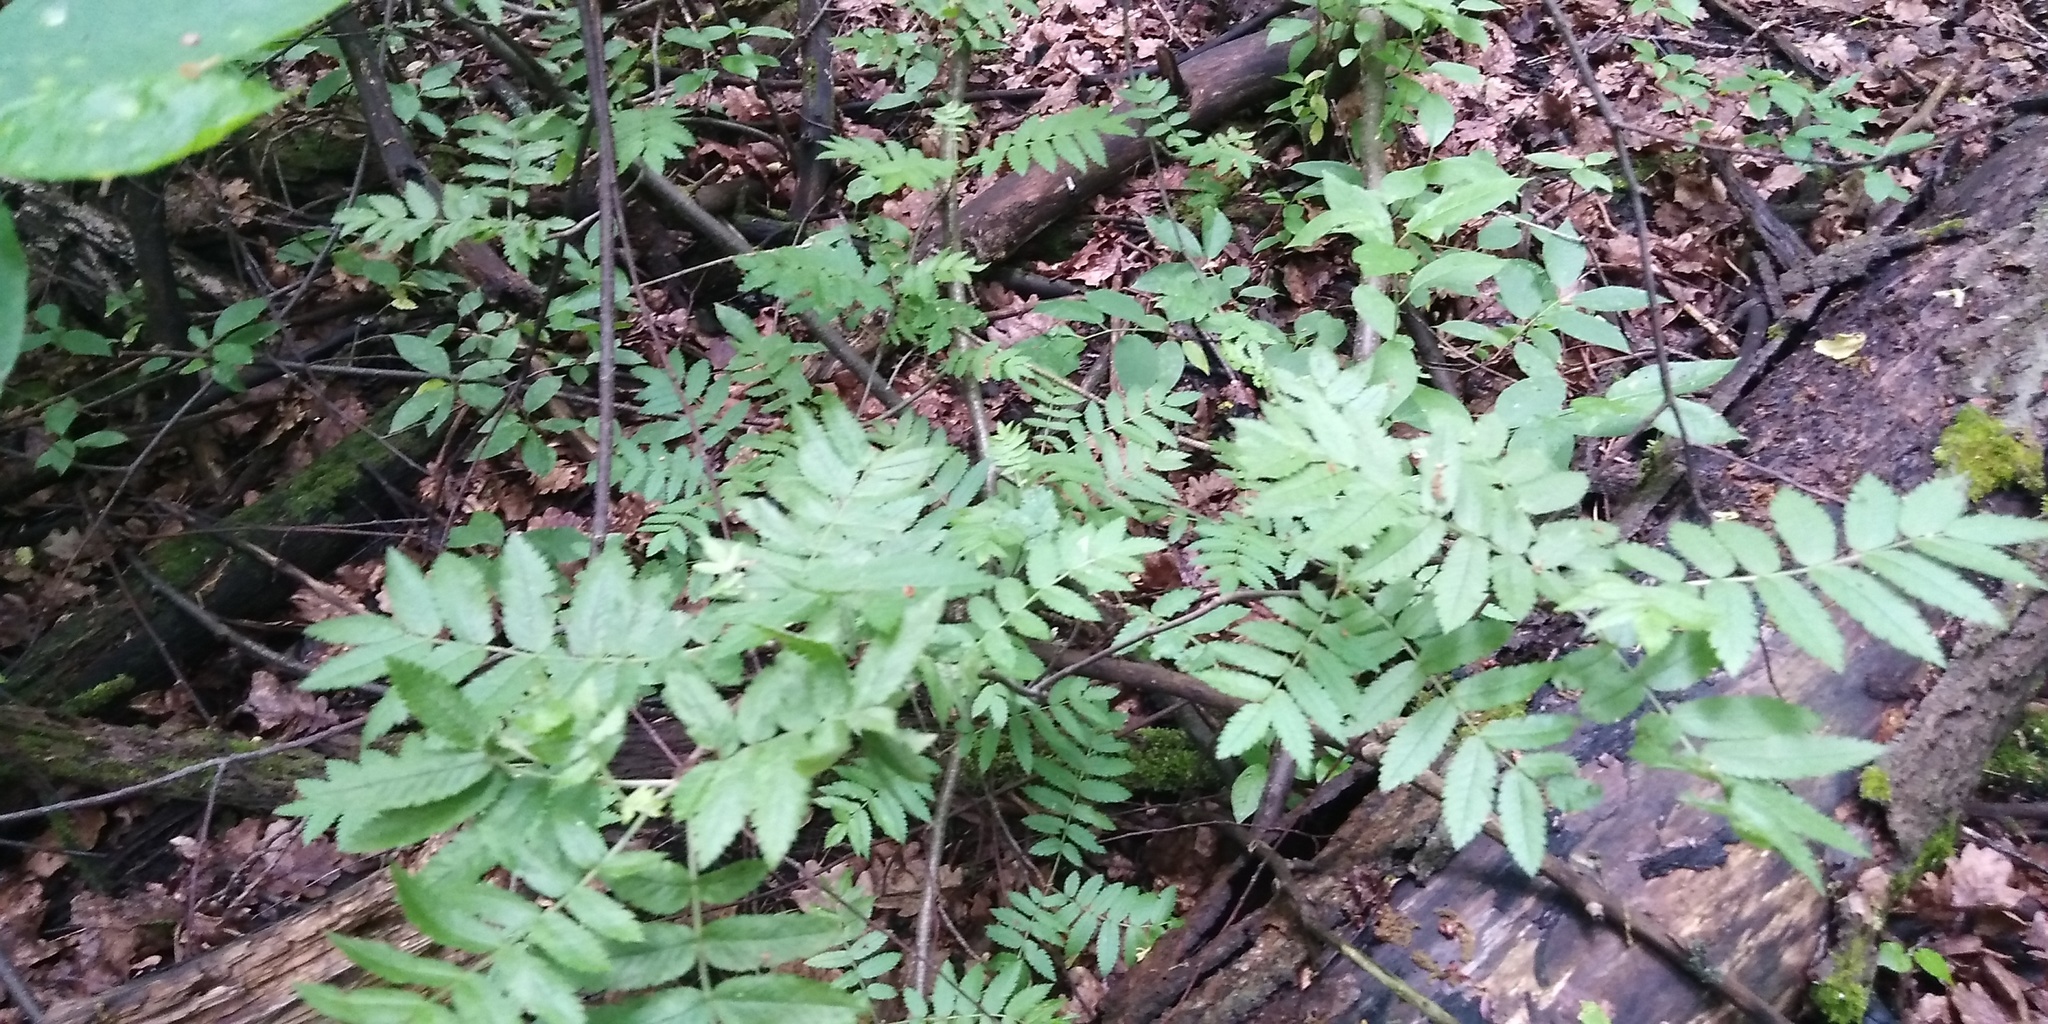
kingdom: Plantae
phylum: Tracheophyta
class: Magnoliopsida
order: Rosales
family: Rosaceae
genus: Sorbus
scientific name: Sorbus aucuparia
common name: Rowan
